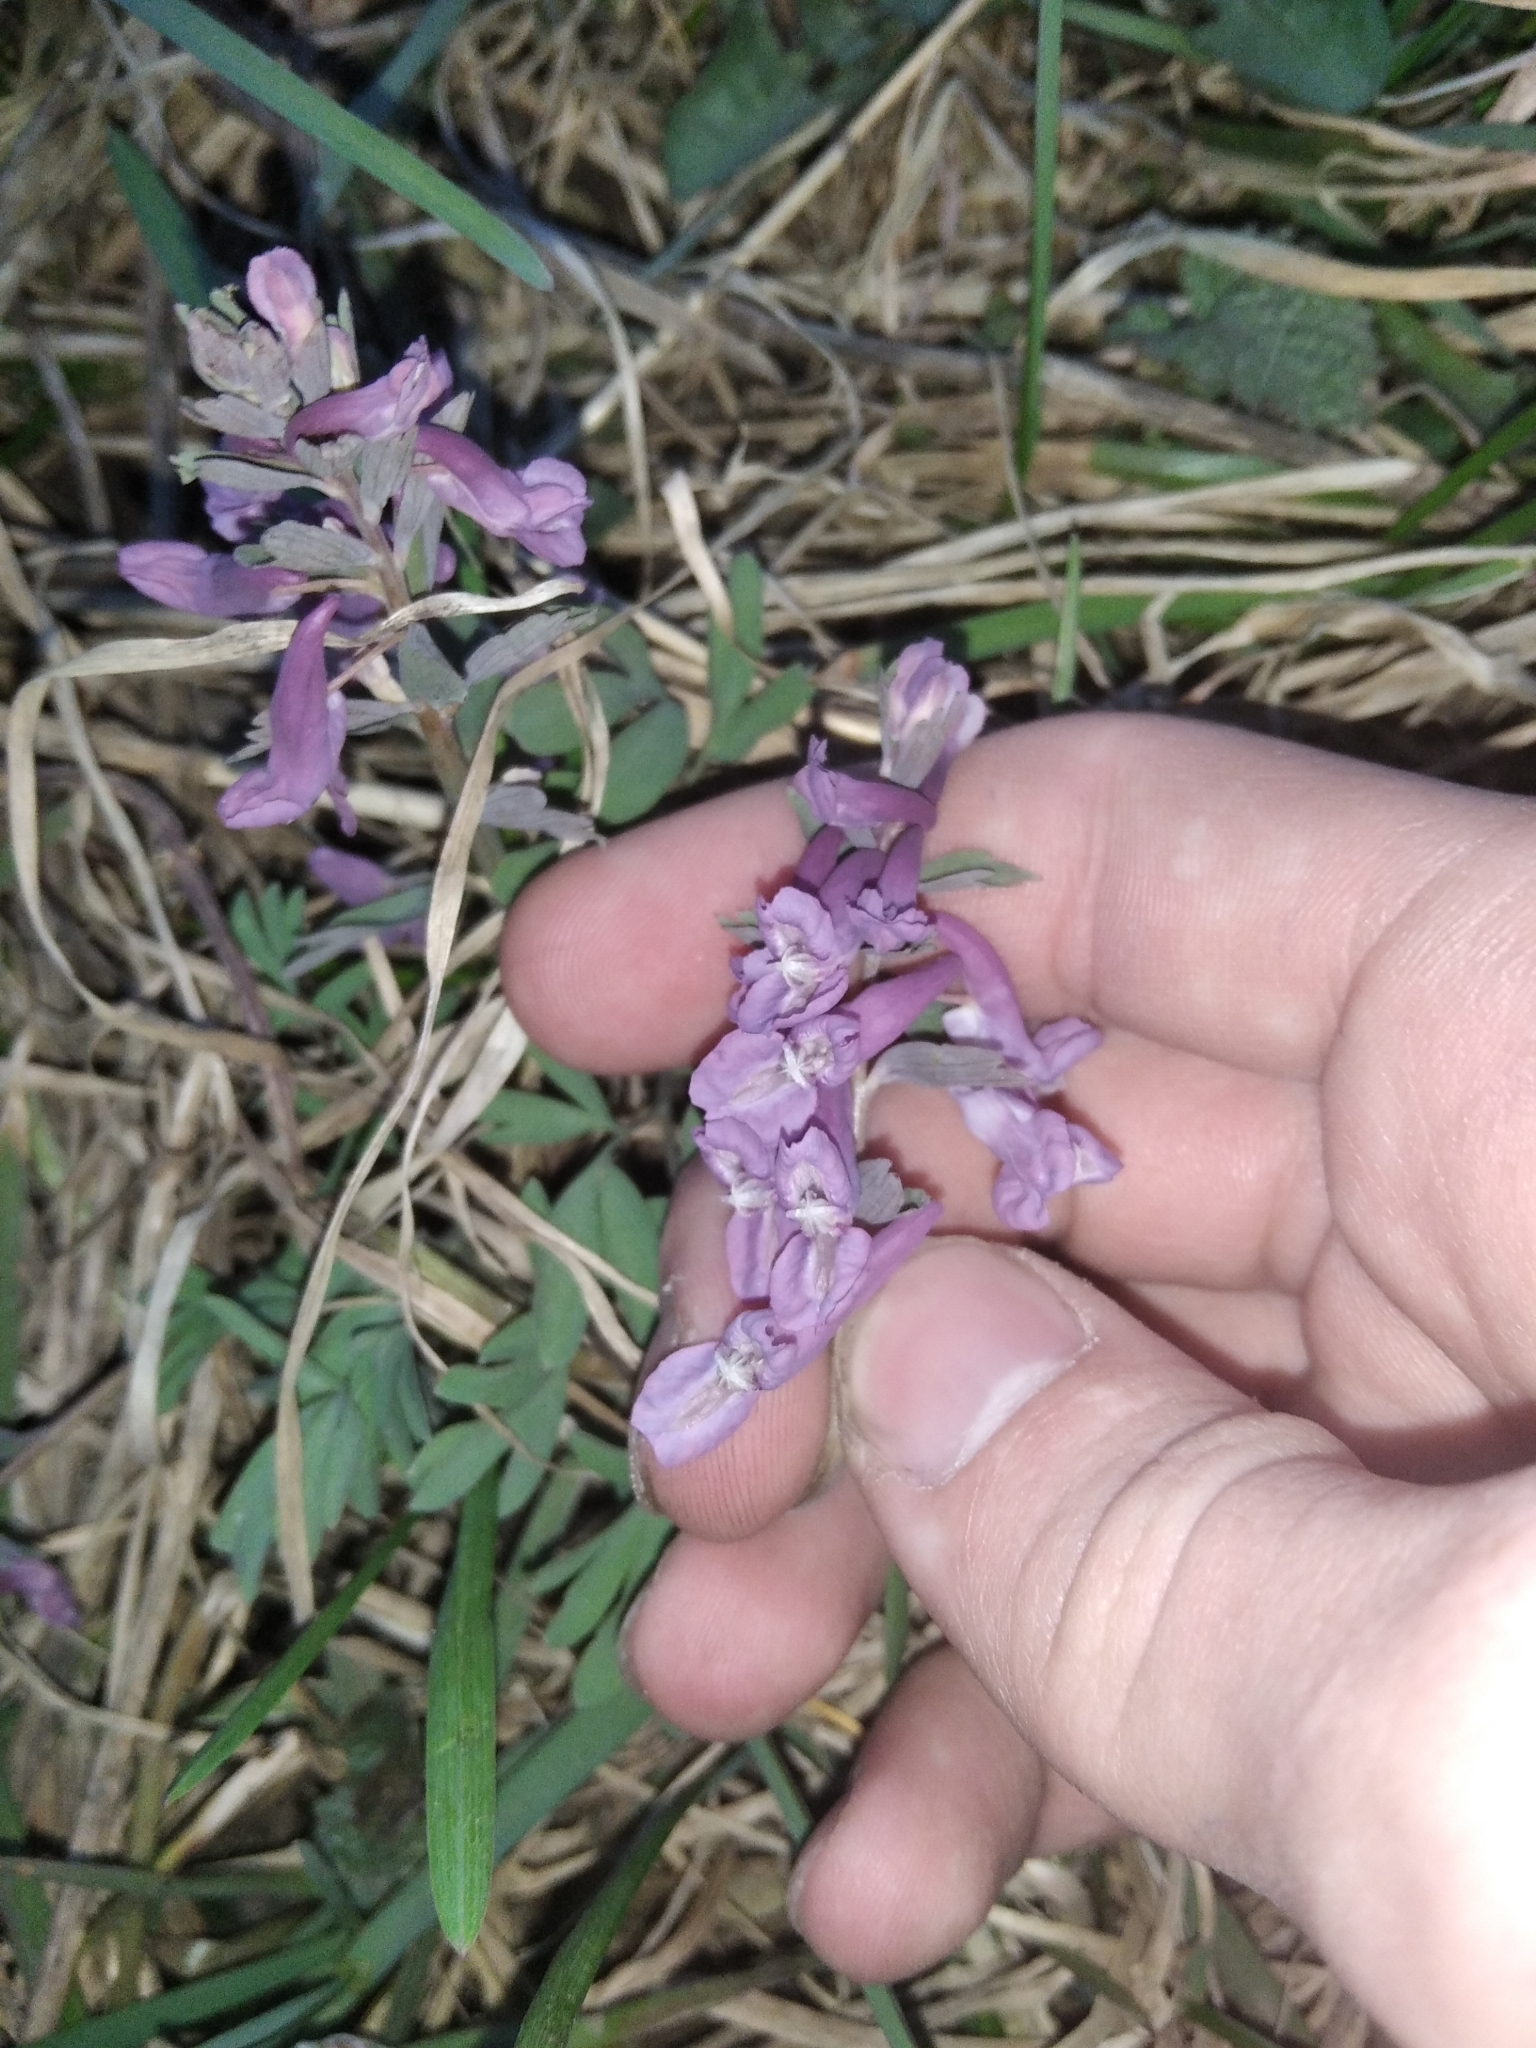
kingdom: Plantae
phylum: Tracheophyta
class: Magnoliopsida
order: Ranunculales
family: Papaveraceae
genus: Corydalis
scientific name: Corydalis solida
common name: Bird-in-a-bush
